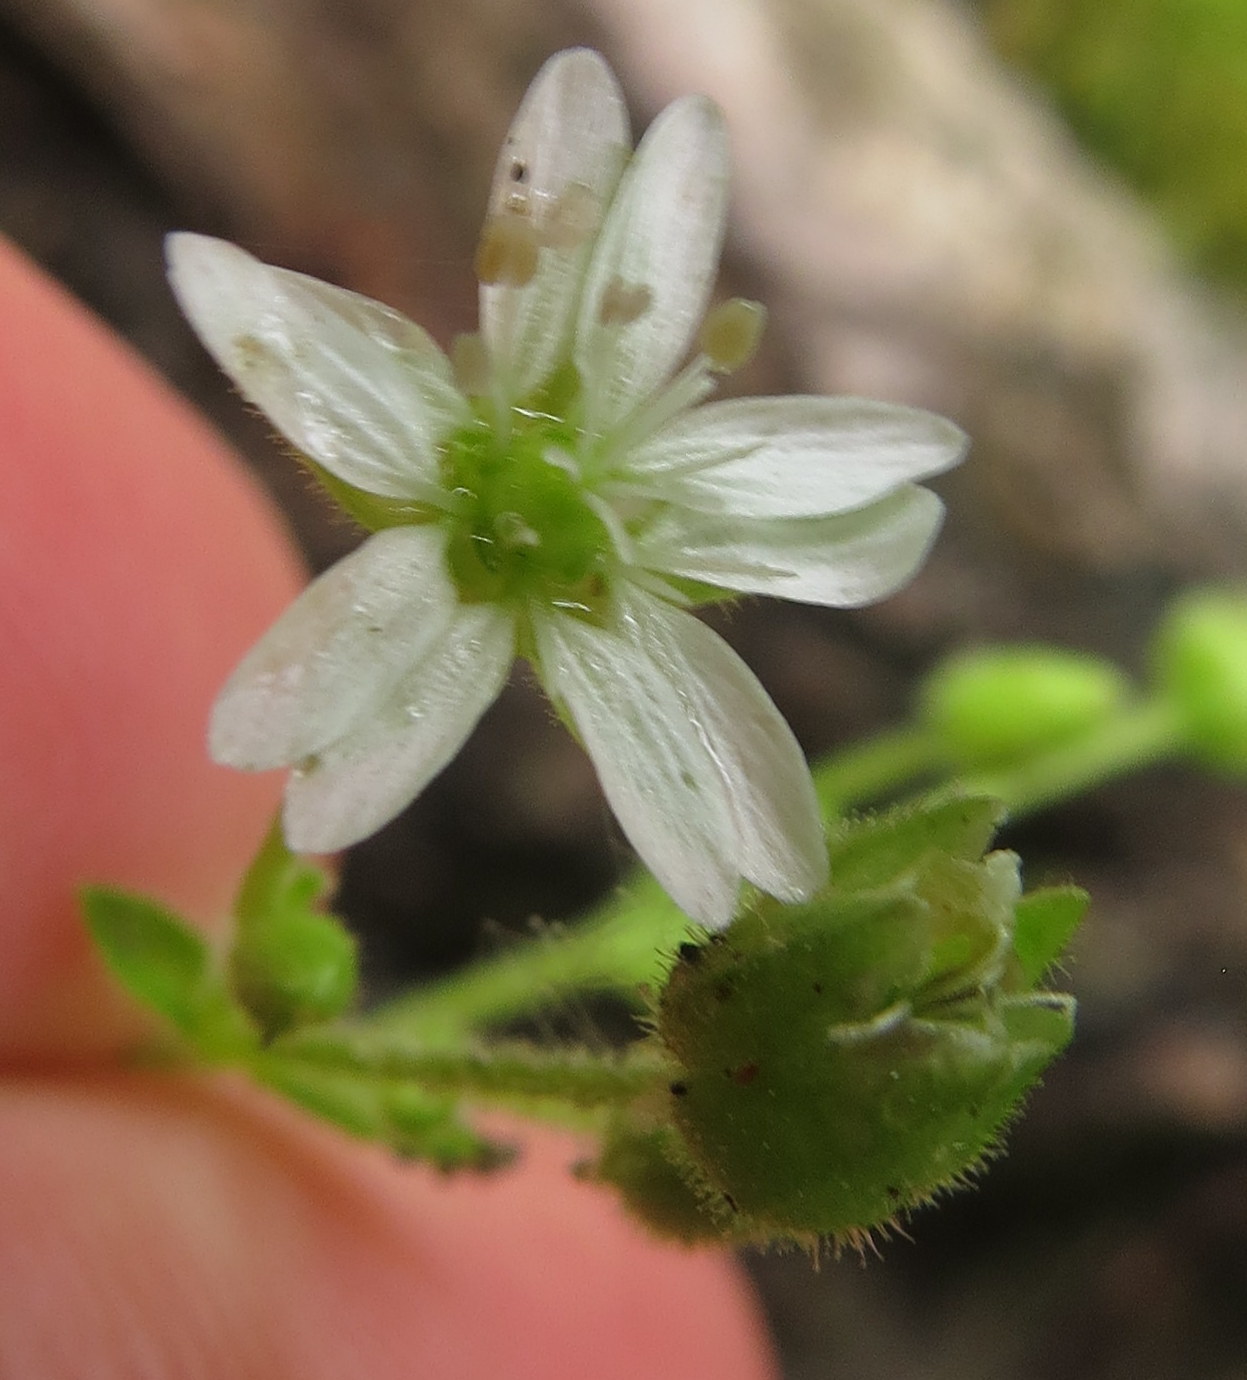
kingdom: Plantae
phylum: Tracheophyta
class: Magnoliopsida
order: Caryophyllales
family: Caryophyllaceae
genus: Stellaria
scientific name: Stellaria media
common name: Common chickweed
